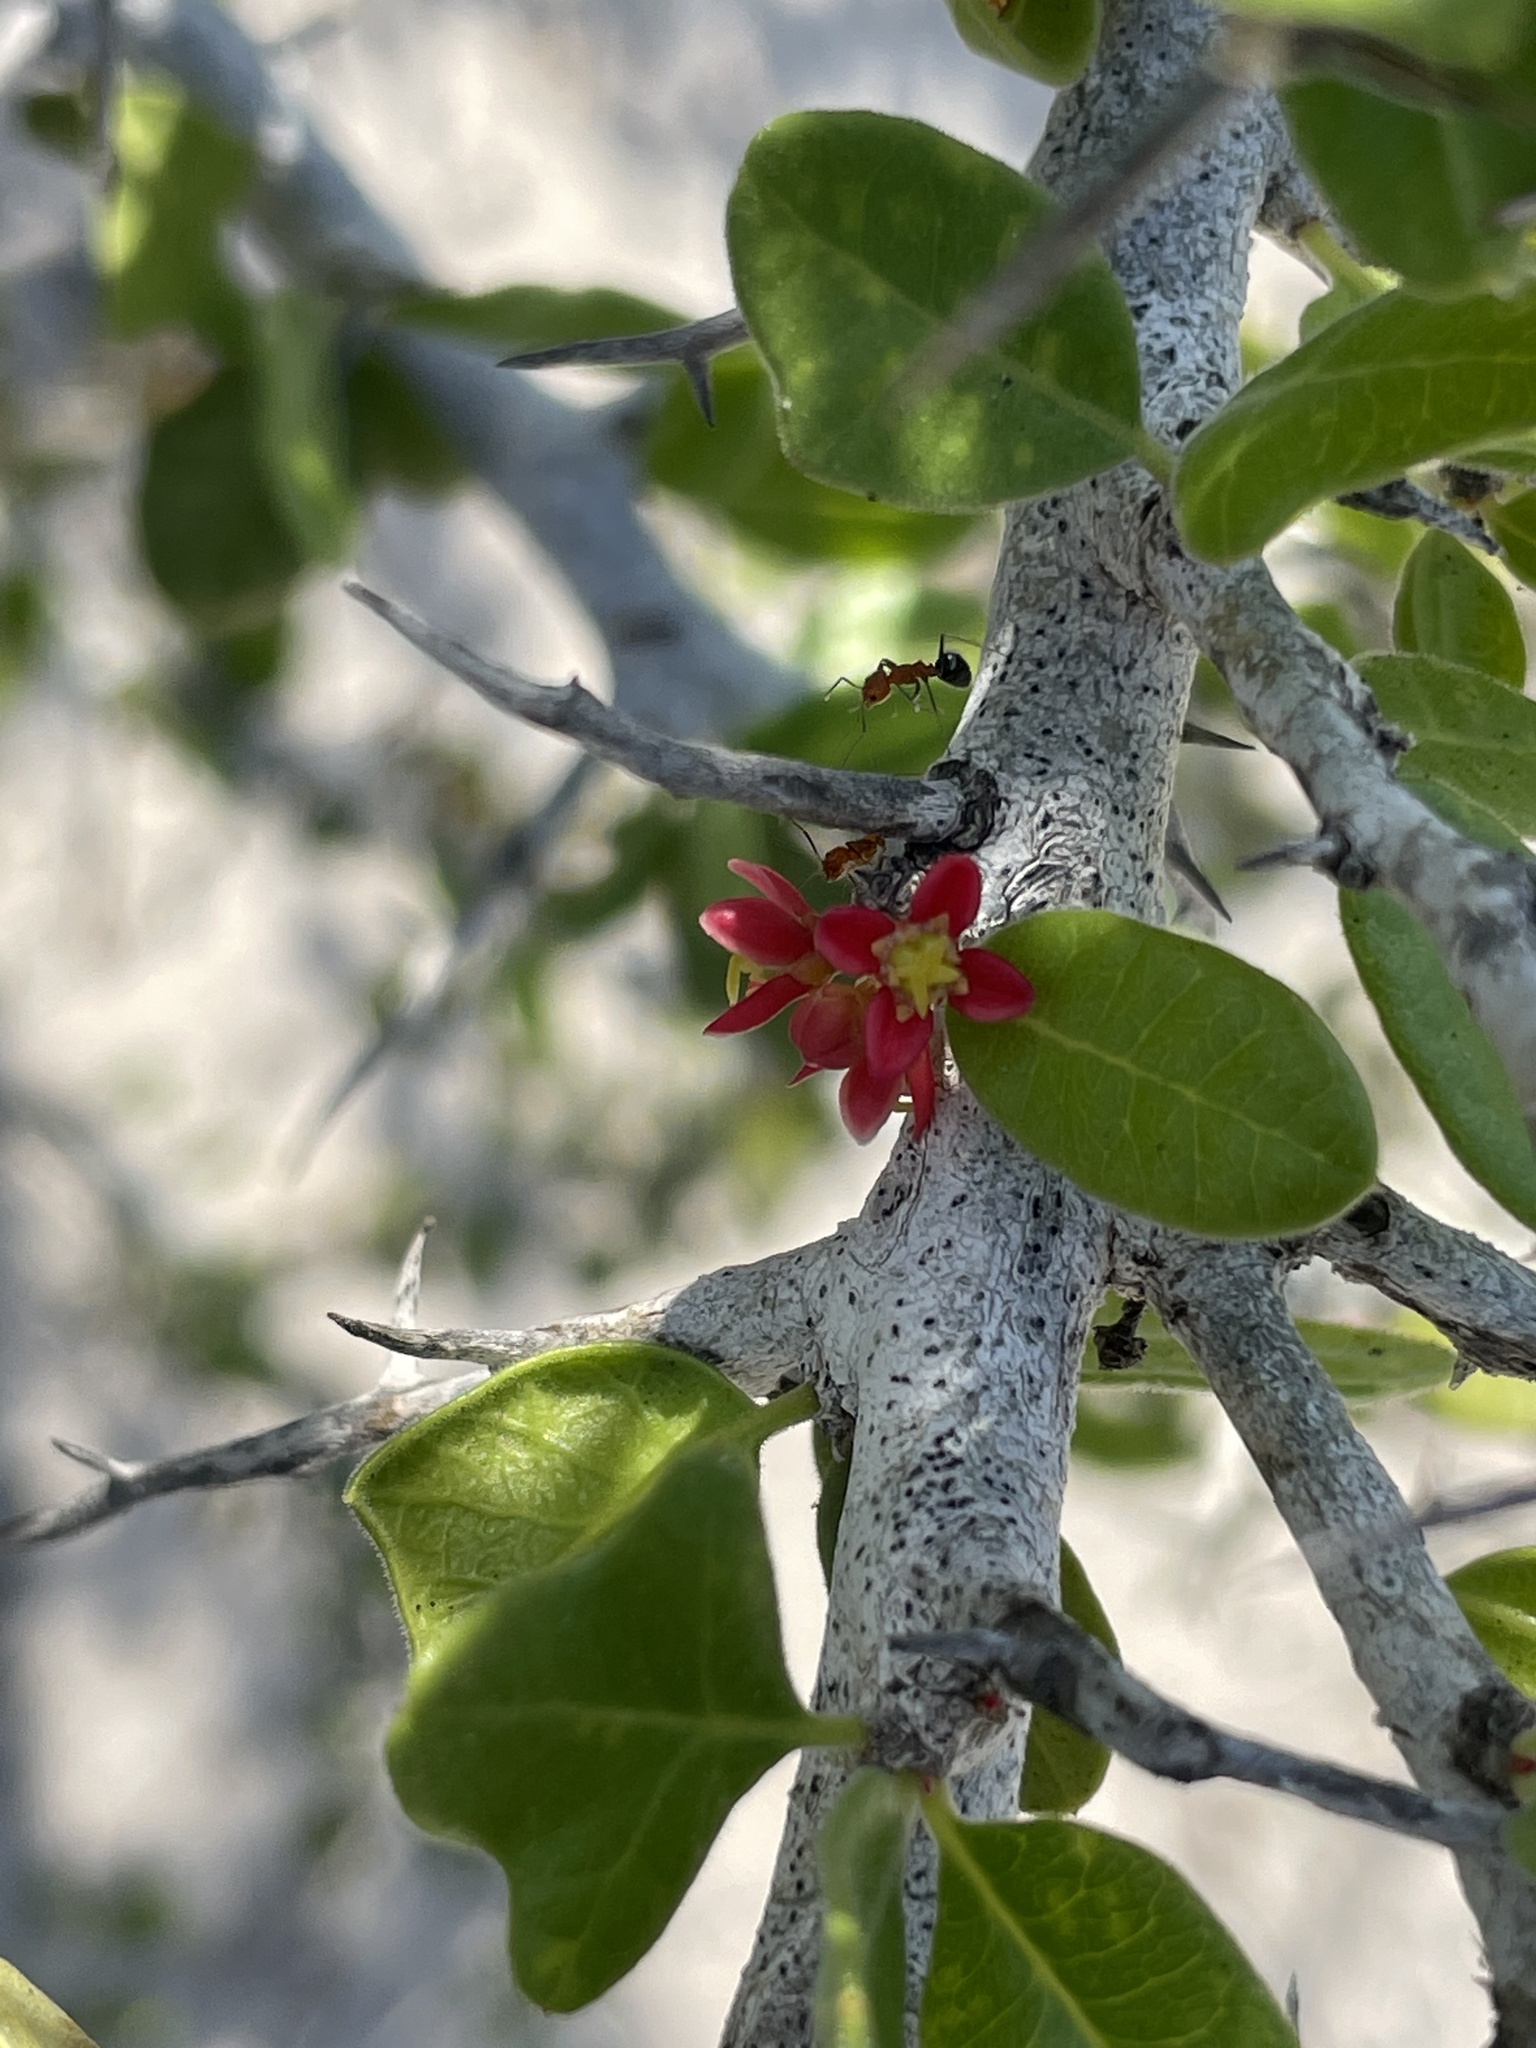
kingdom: Plantae
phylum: Tracheophyta
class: Magnoliopsida
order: Sapindales
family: Simaroubaceae
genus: Castela
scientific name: Castela peninsularis
